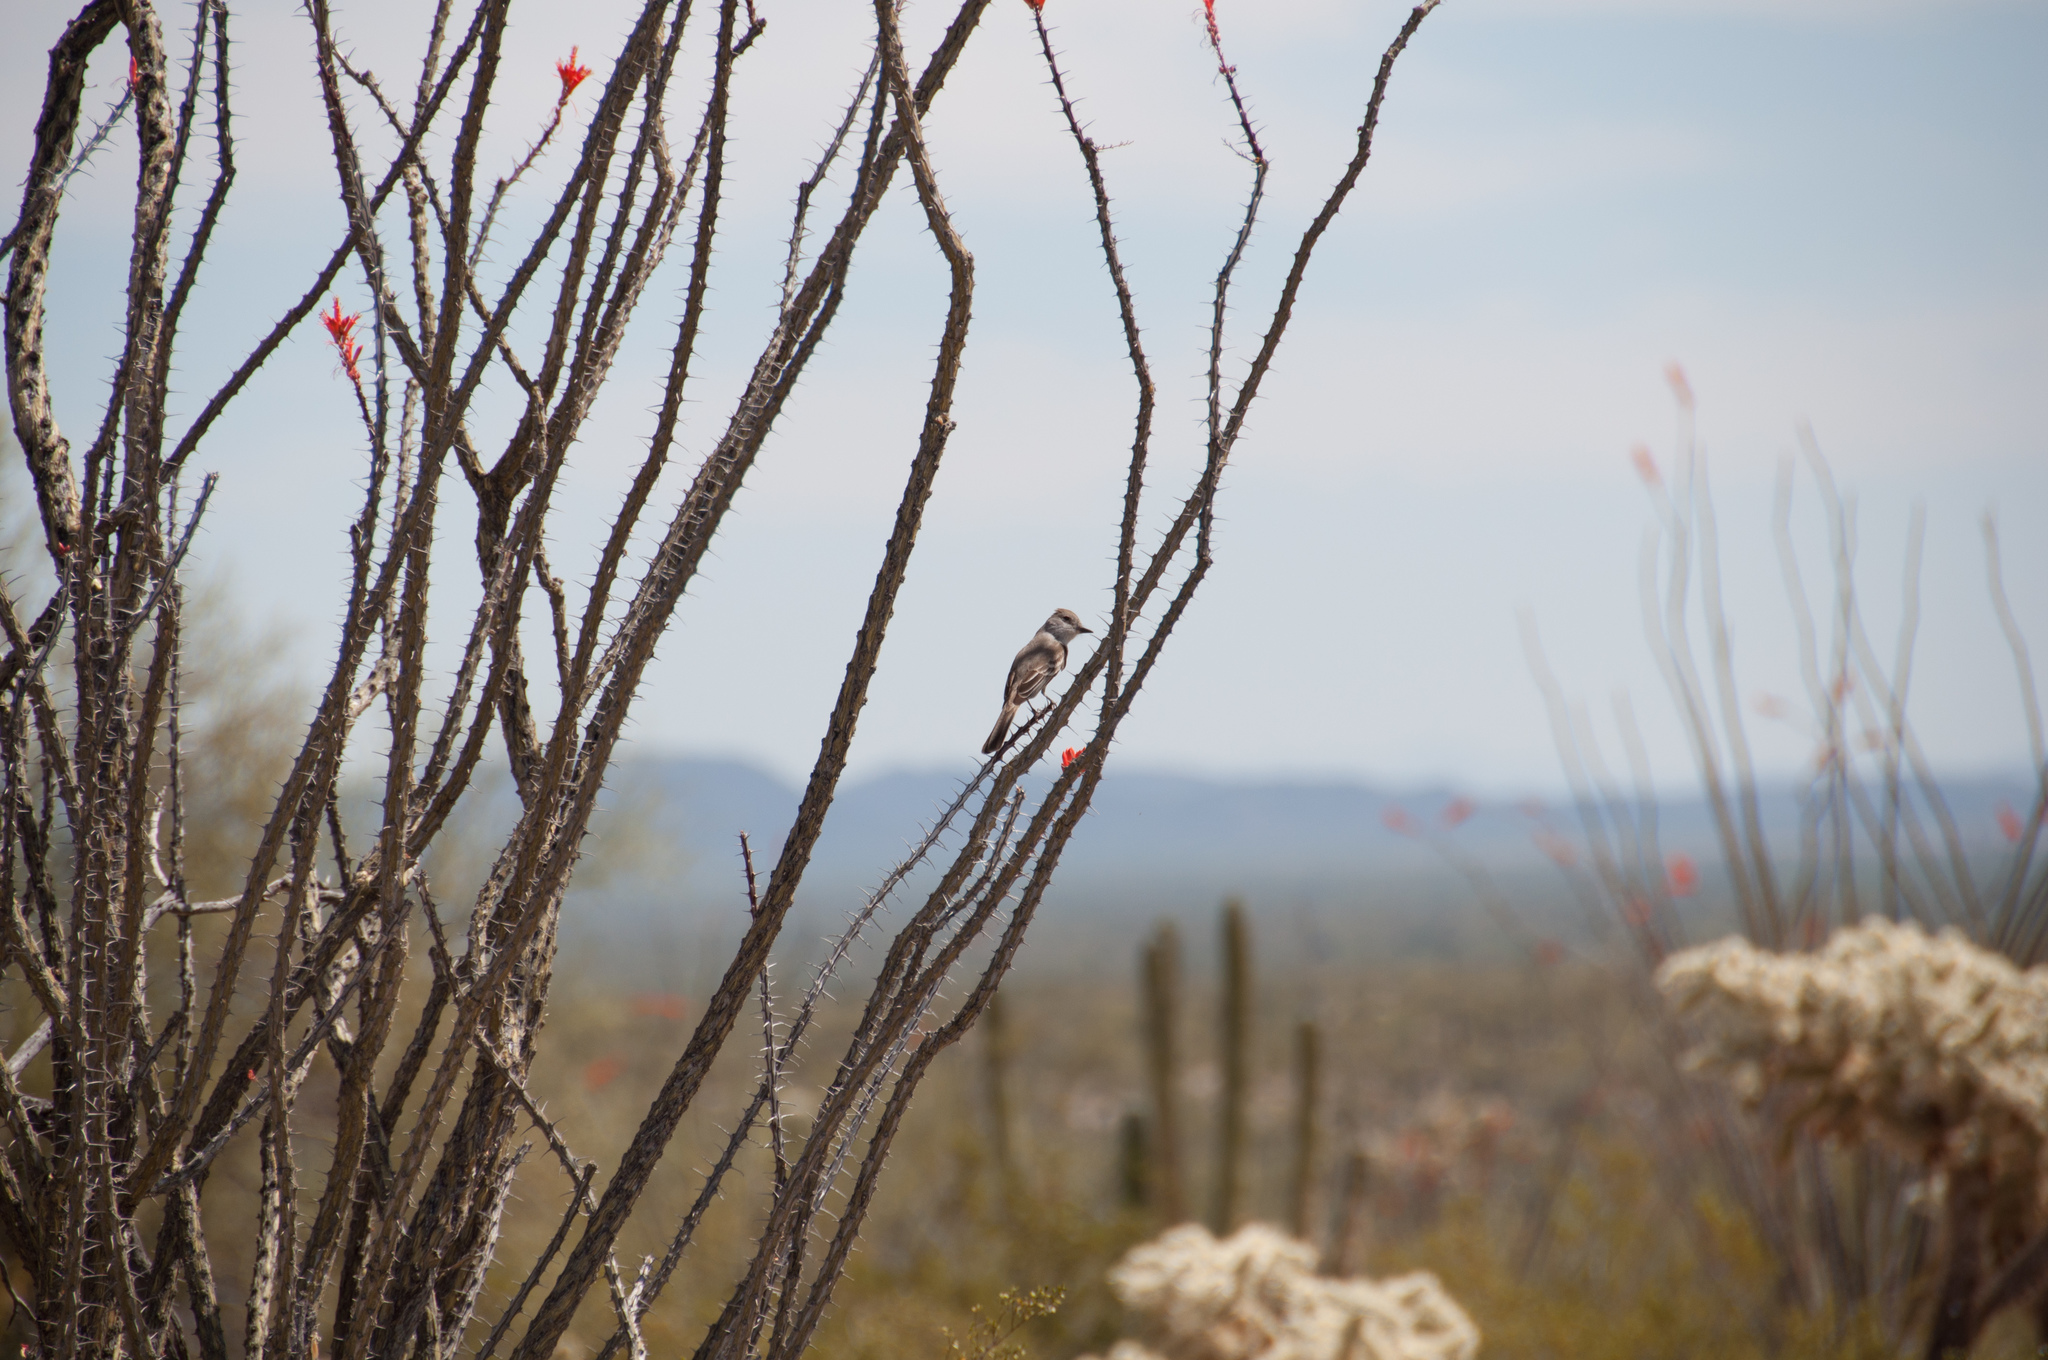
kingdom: Animalia
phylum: Chordata
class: Aves
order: Passeriformes
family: Tyrannidae
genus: Myiarchus
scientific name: Myiarchus cinerascens
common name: Ash-throated flycatcher
